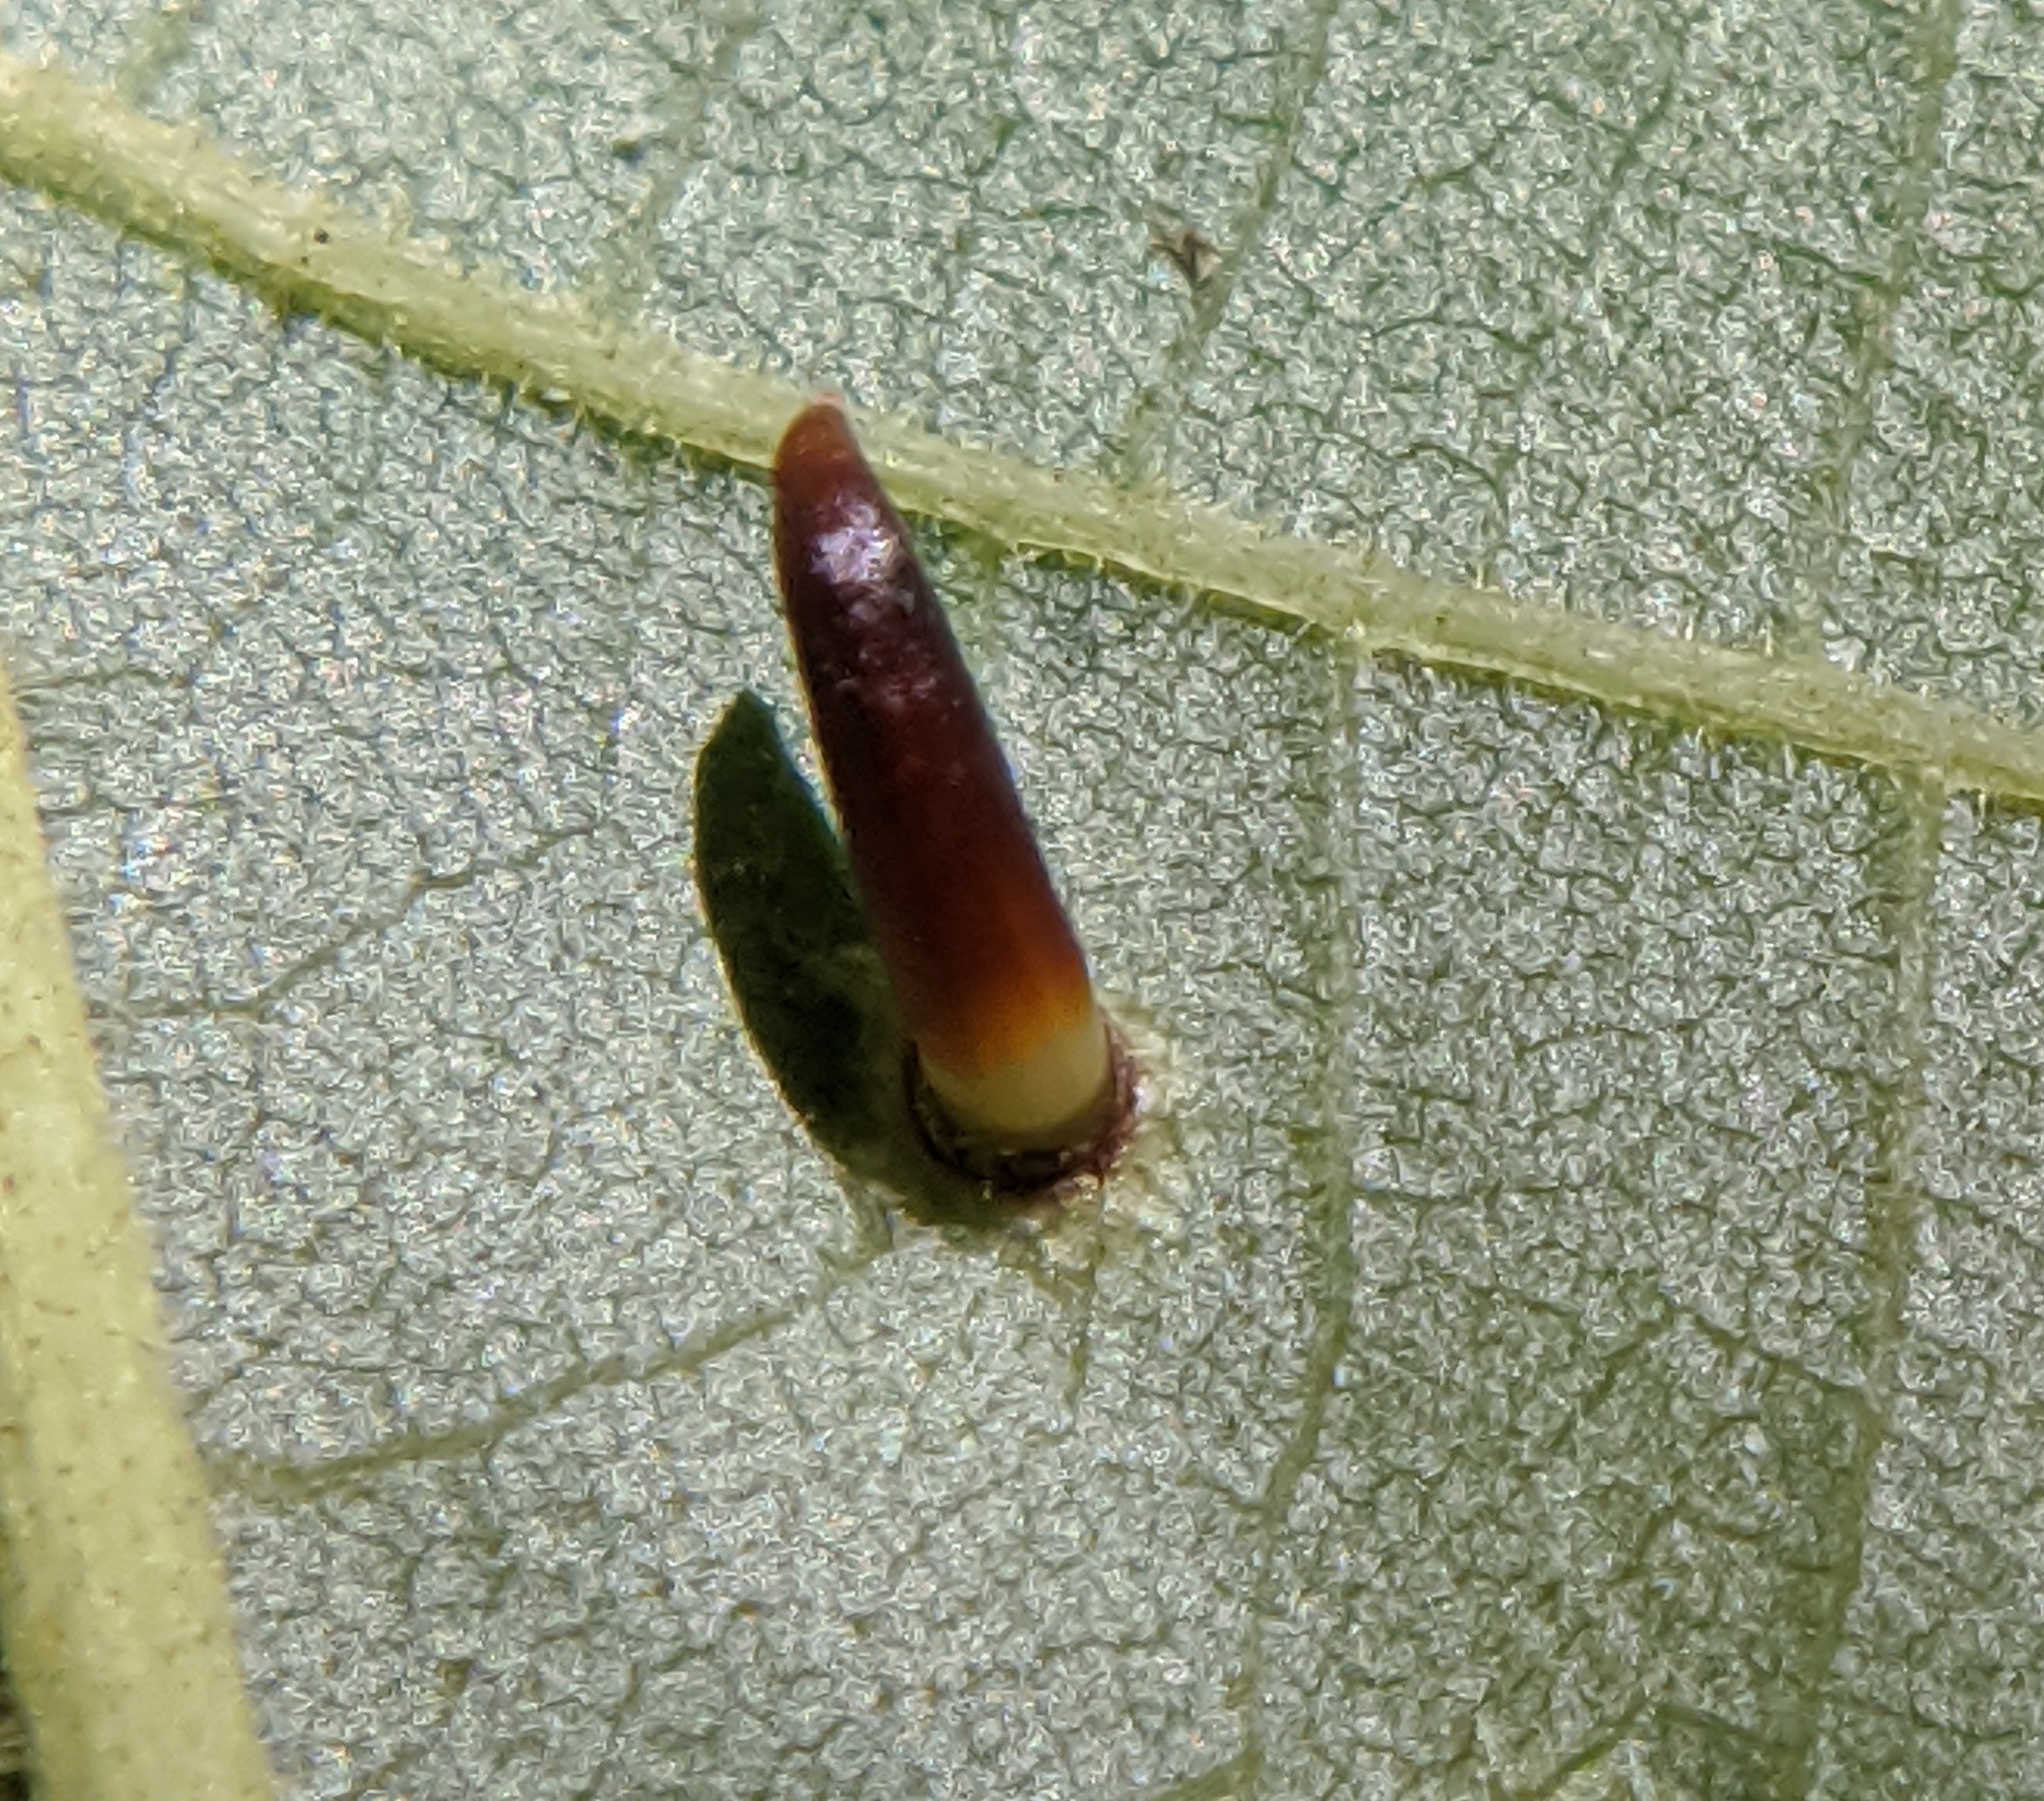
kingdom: Animalia
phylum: Arthropoda
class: Insecta
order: Diptera
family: Cecidomyiidae
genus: Caryomyia
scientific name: Caryomyia subulata
